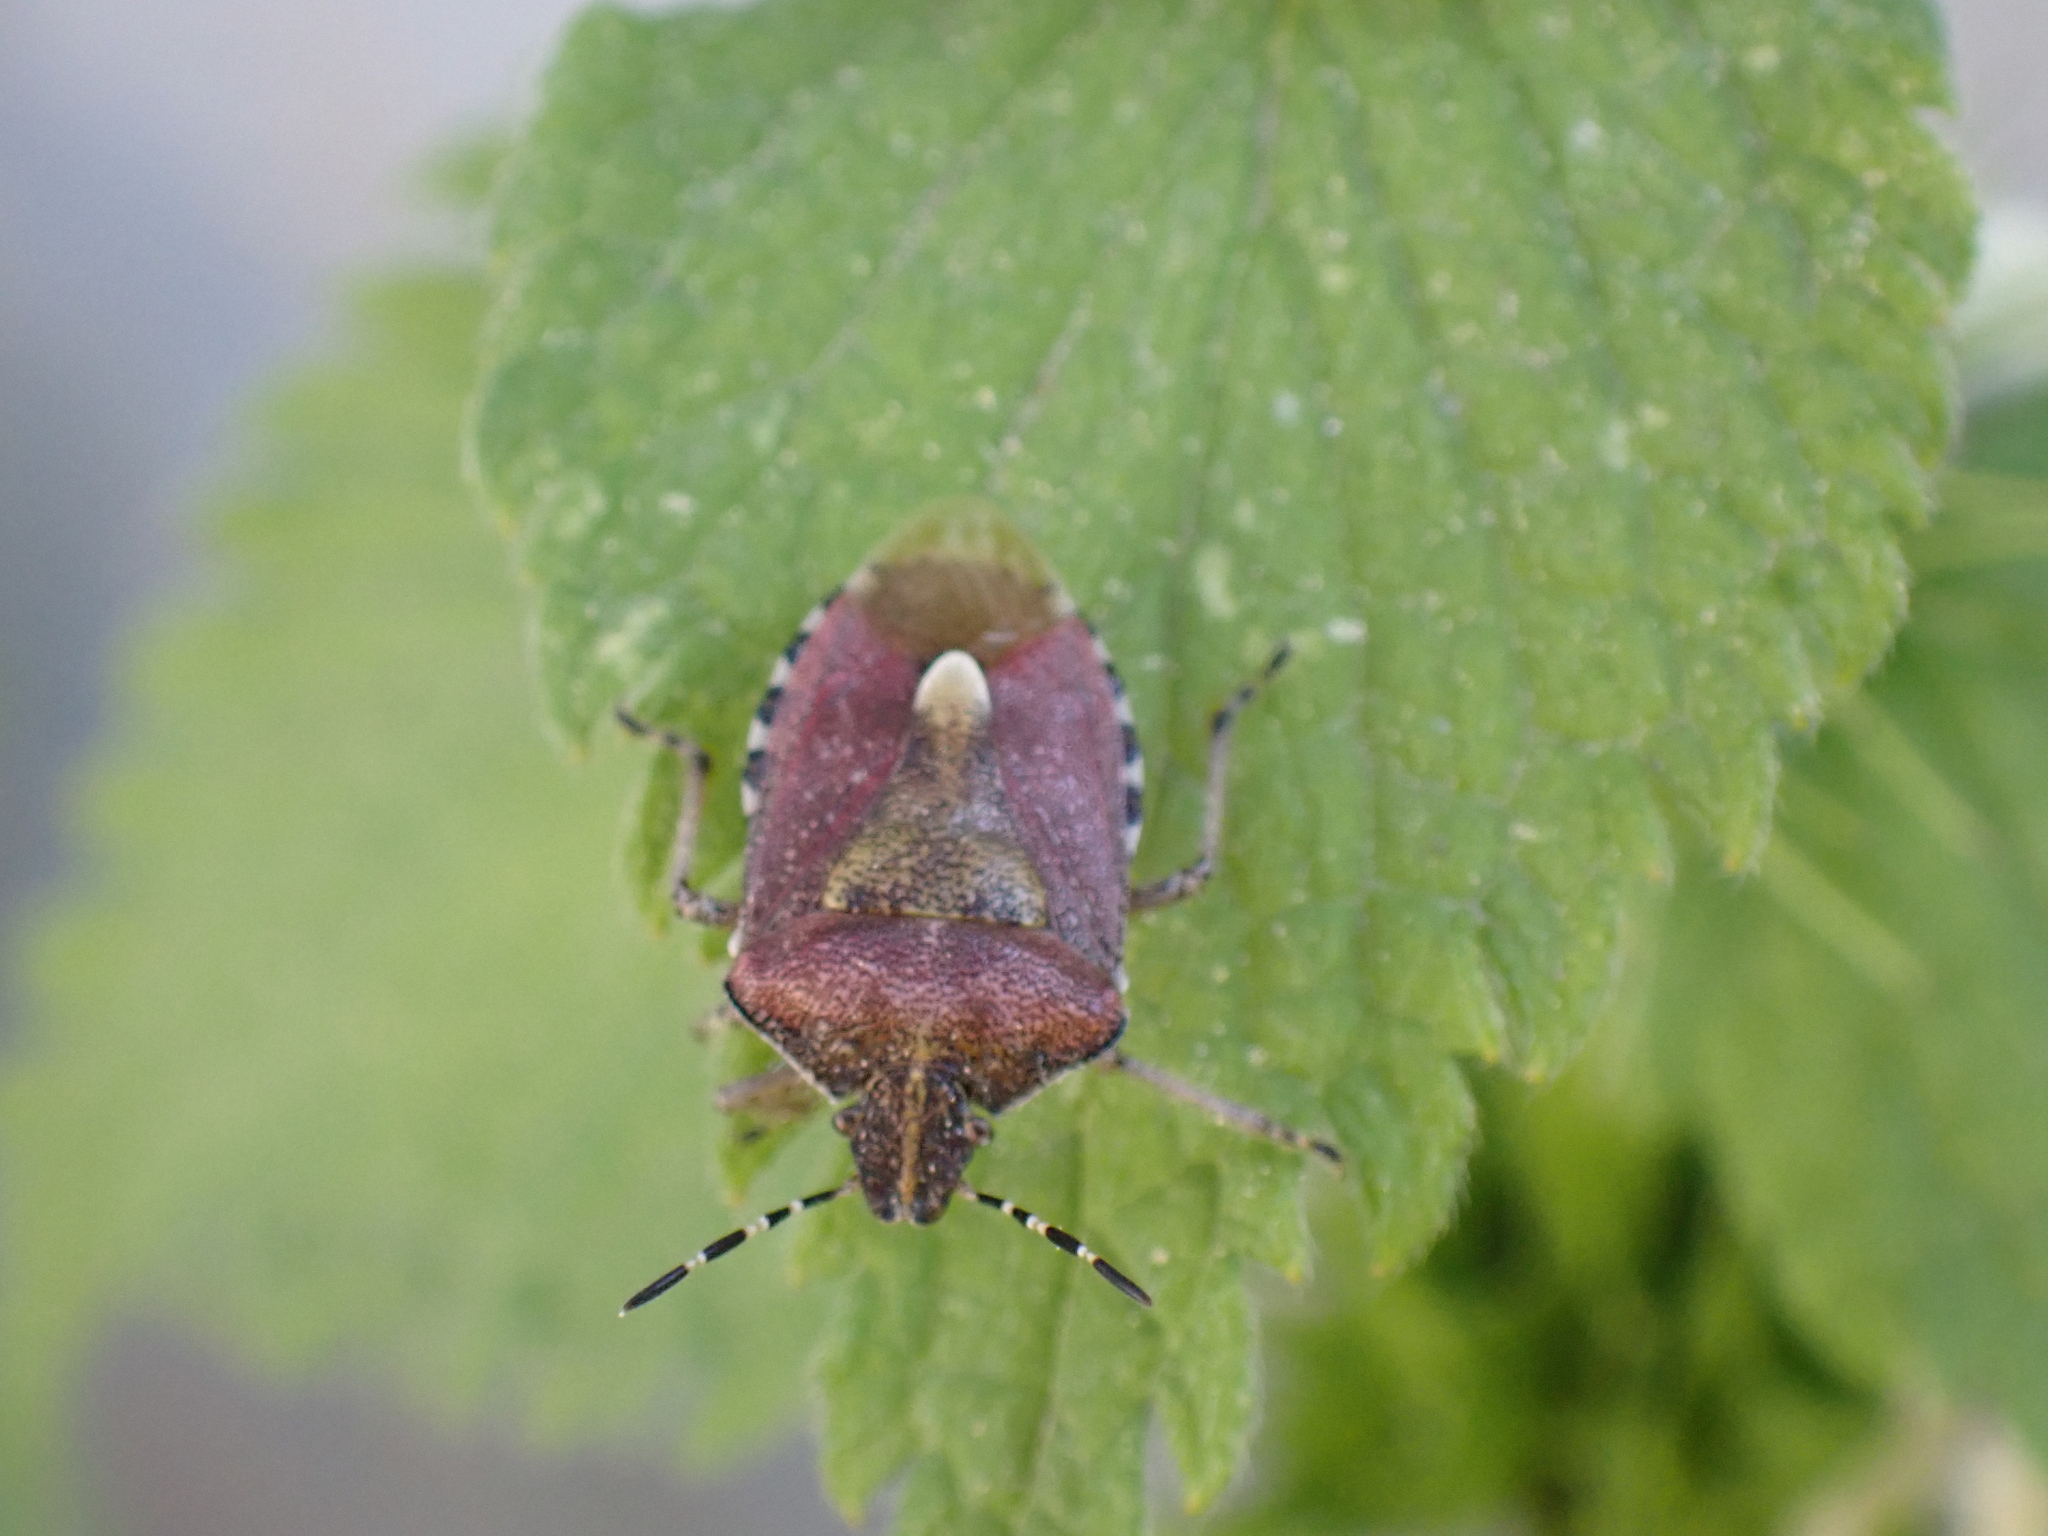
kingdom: Animalia
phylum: Arthropoda
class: Insecta
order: Hemiptera
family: Pentatomidae
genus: Dolycoris
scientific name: Dolycoris baccarum
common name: Sloe bug
